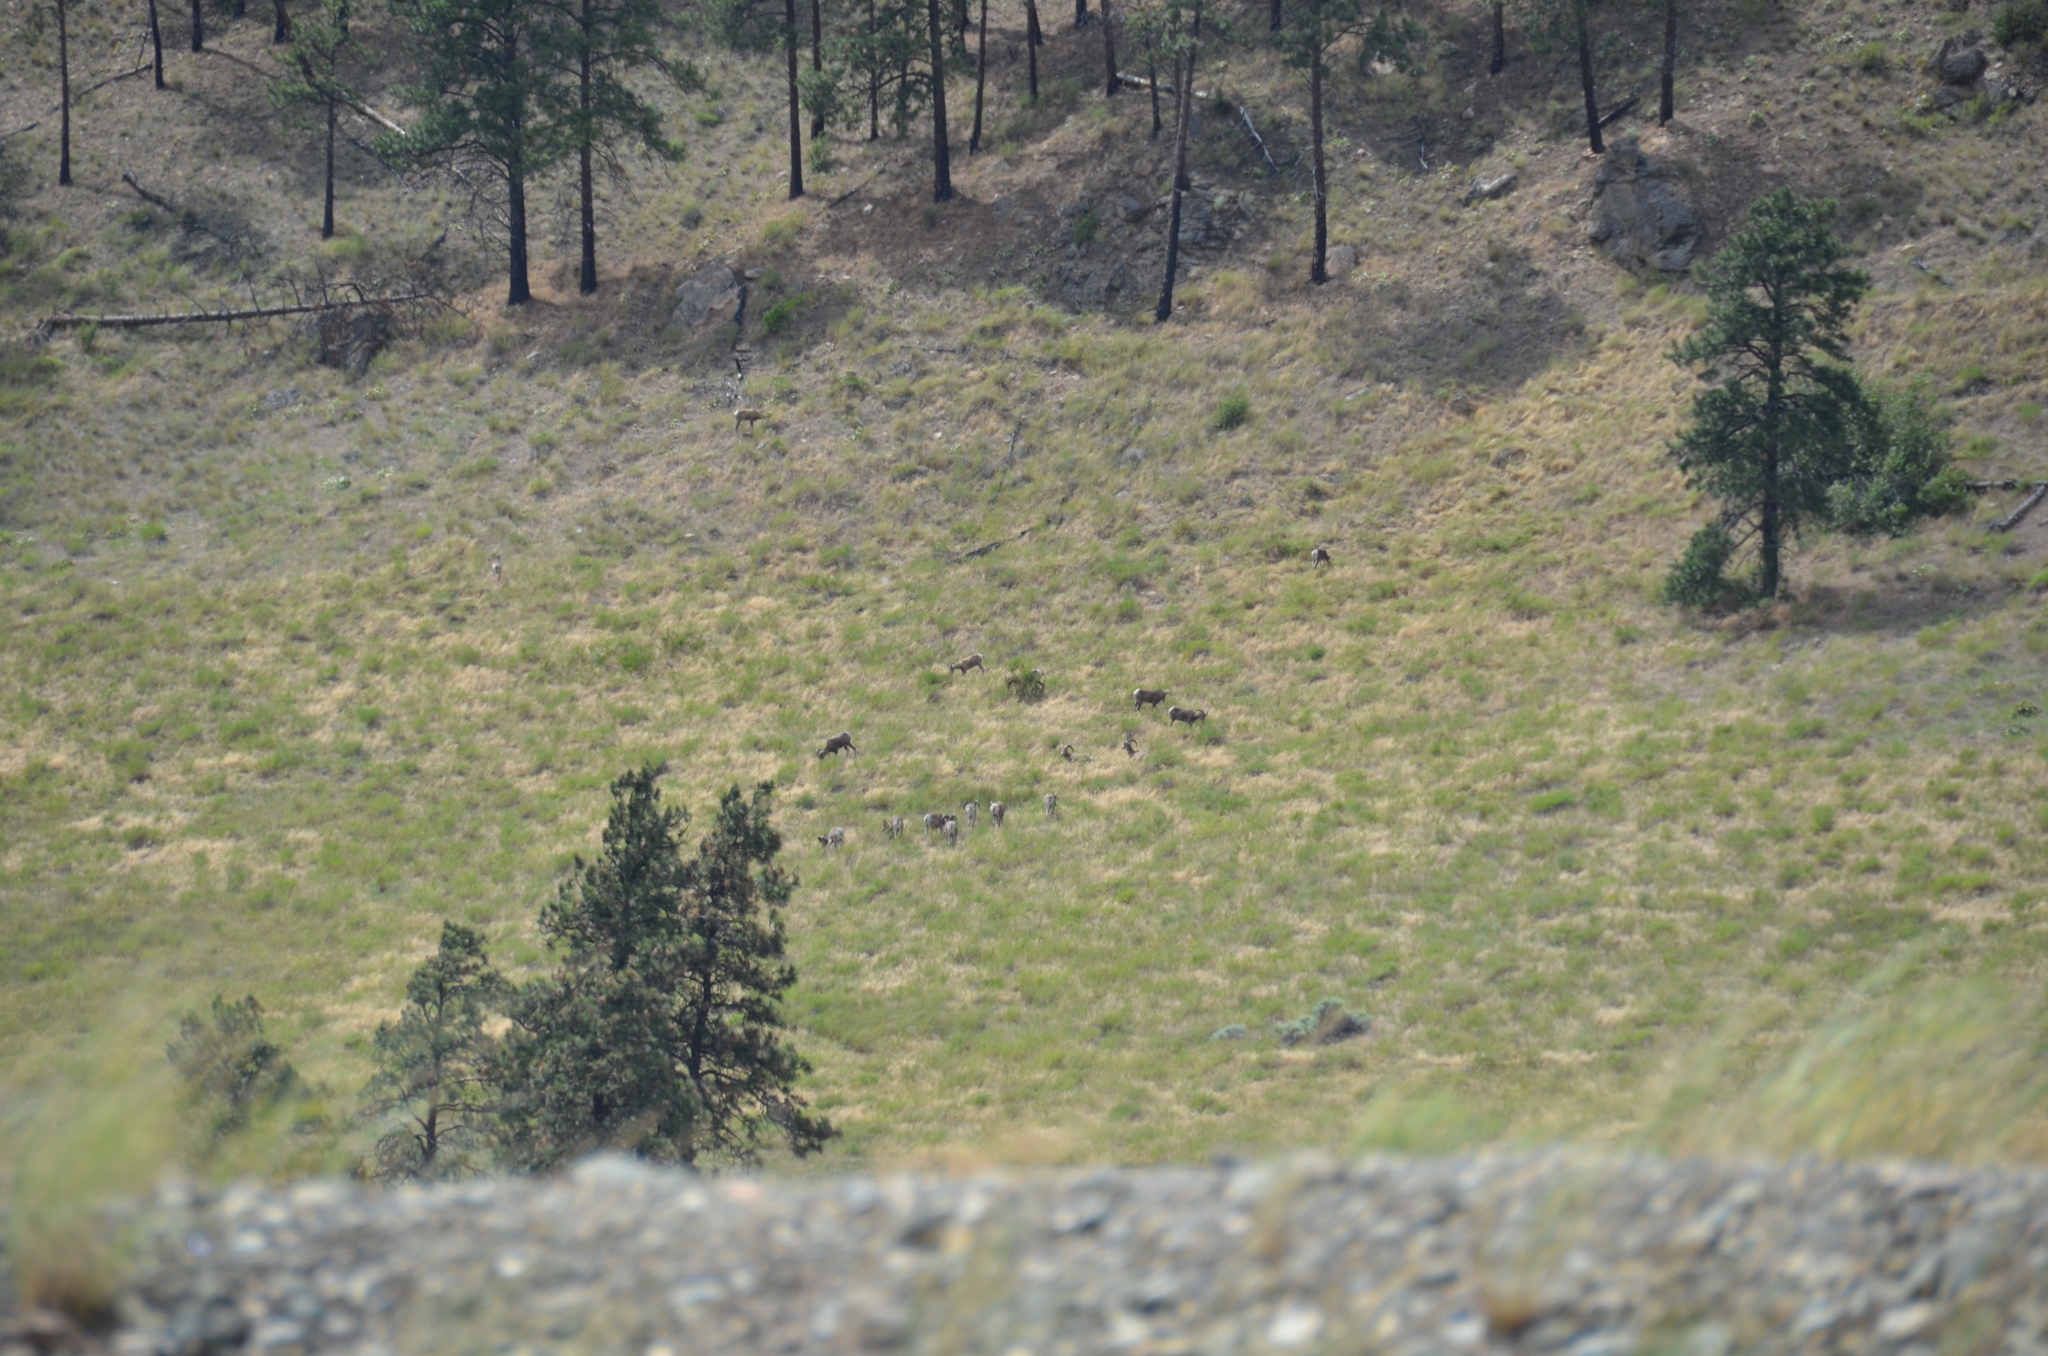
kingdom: Animalia
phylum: Chordata
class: Mammalia
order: Artiodactyla
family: Bovidae
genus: Ovis
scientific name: Ovis canadensis
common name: Bighorn sheep
